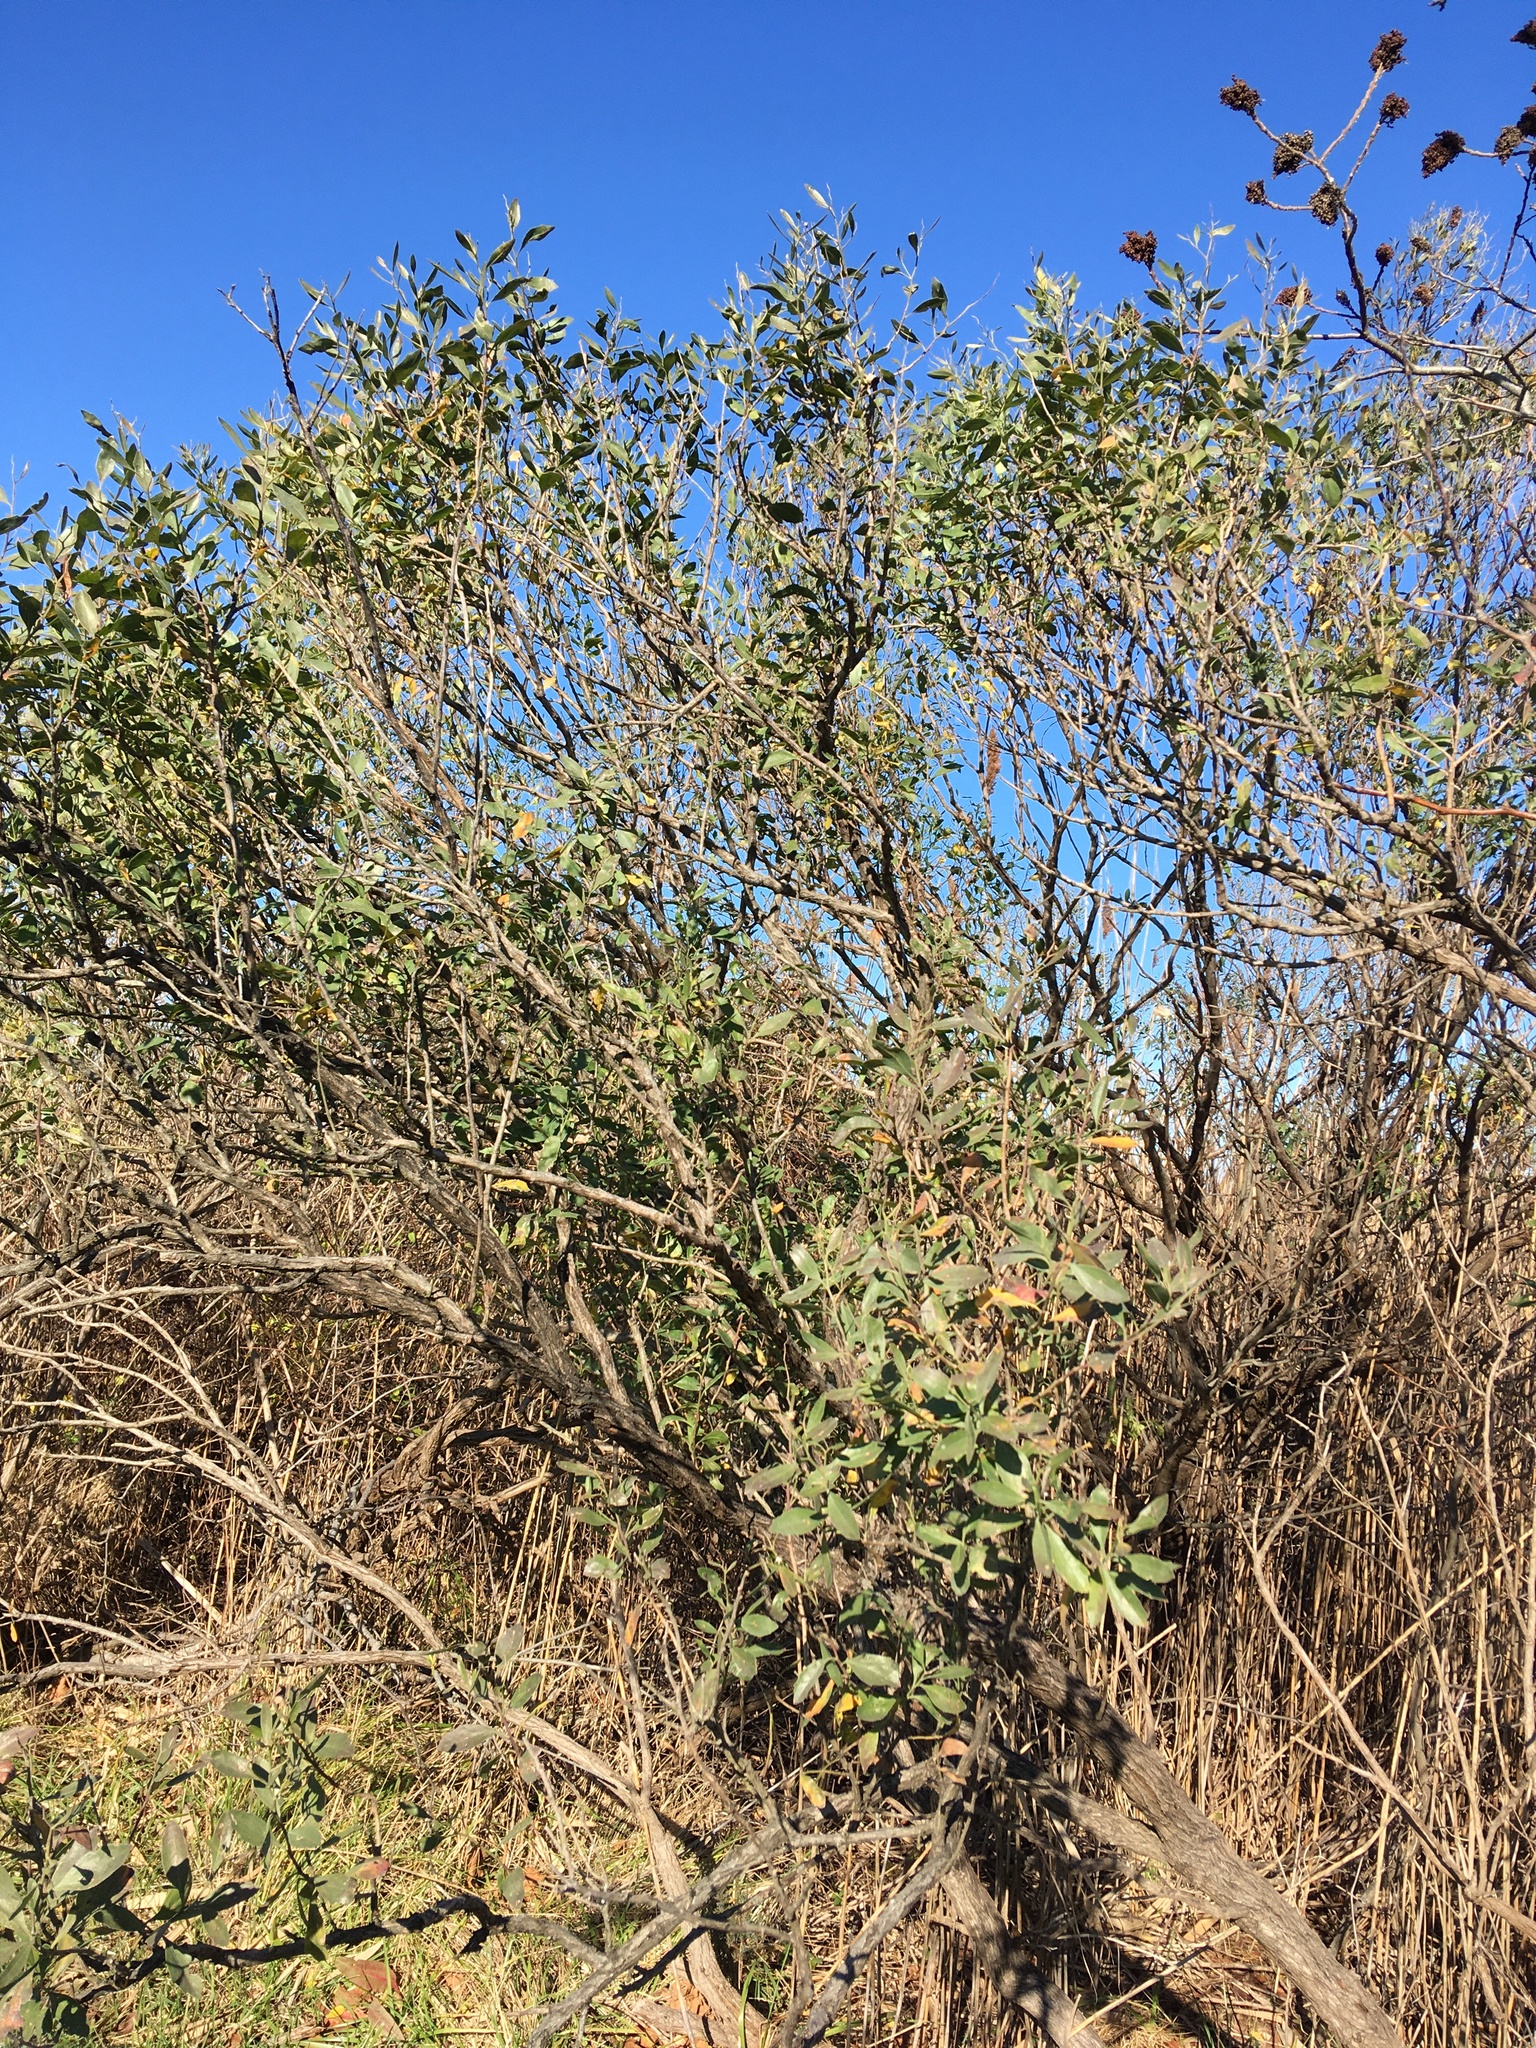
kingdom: Plantae
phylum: Tracheophyta
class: Magnoliopsida
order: Asterales
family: Asteraceae
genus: Baccharis
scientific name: Baccharis halimifolia
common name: Eastern baccharis
